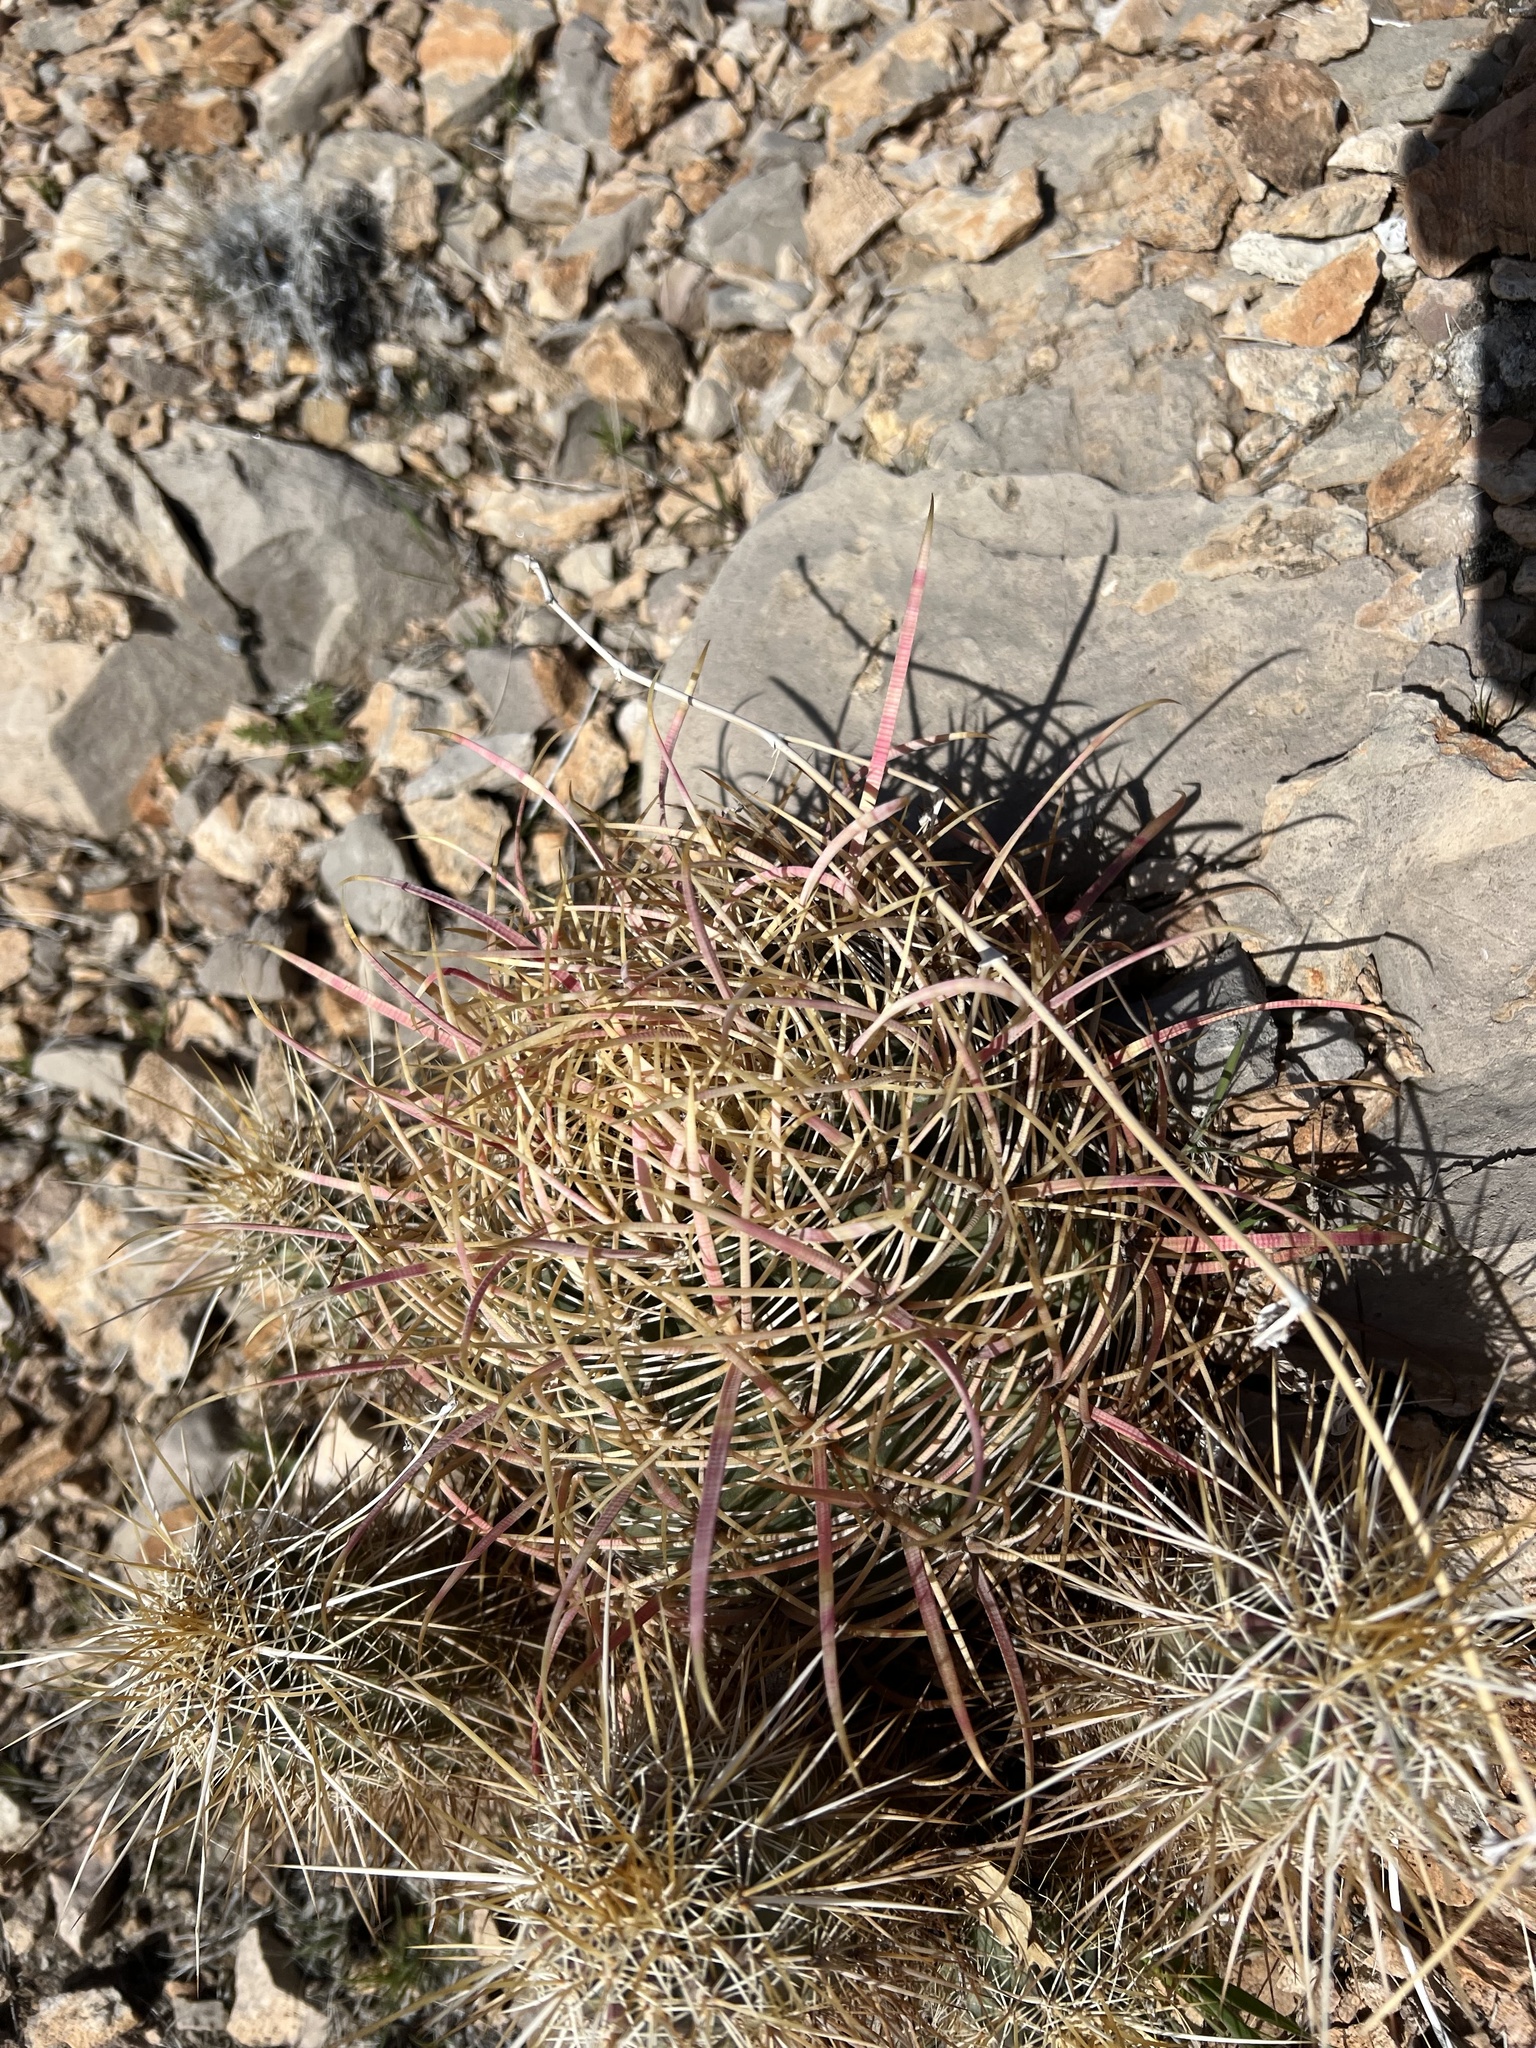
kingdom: Plantae
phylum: Tracheophyta
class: Magnoliopsida
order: Caryophyllales
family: Cactaceae
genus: Ferocactus
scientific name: Ferocactus cylindraceus
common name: California barrel cactus
